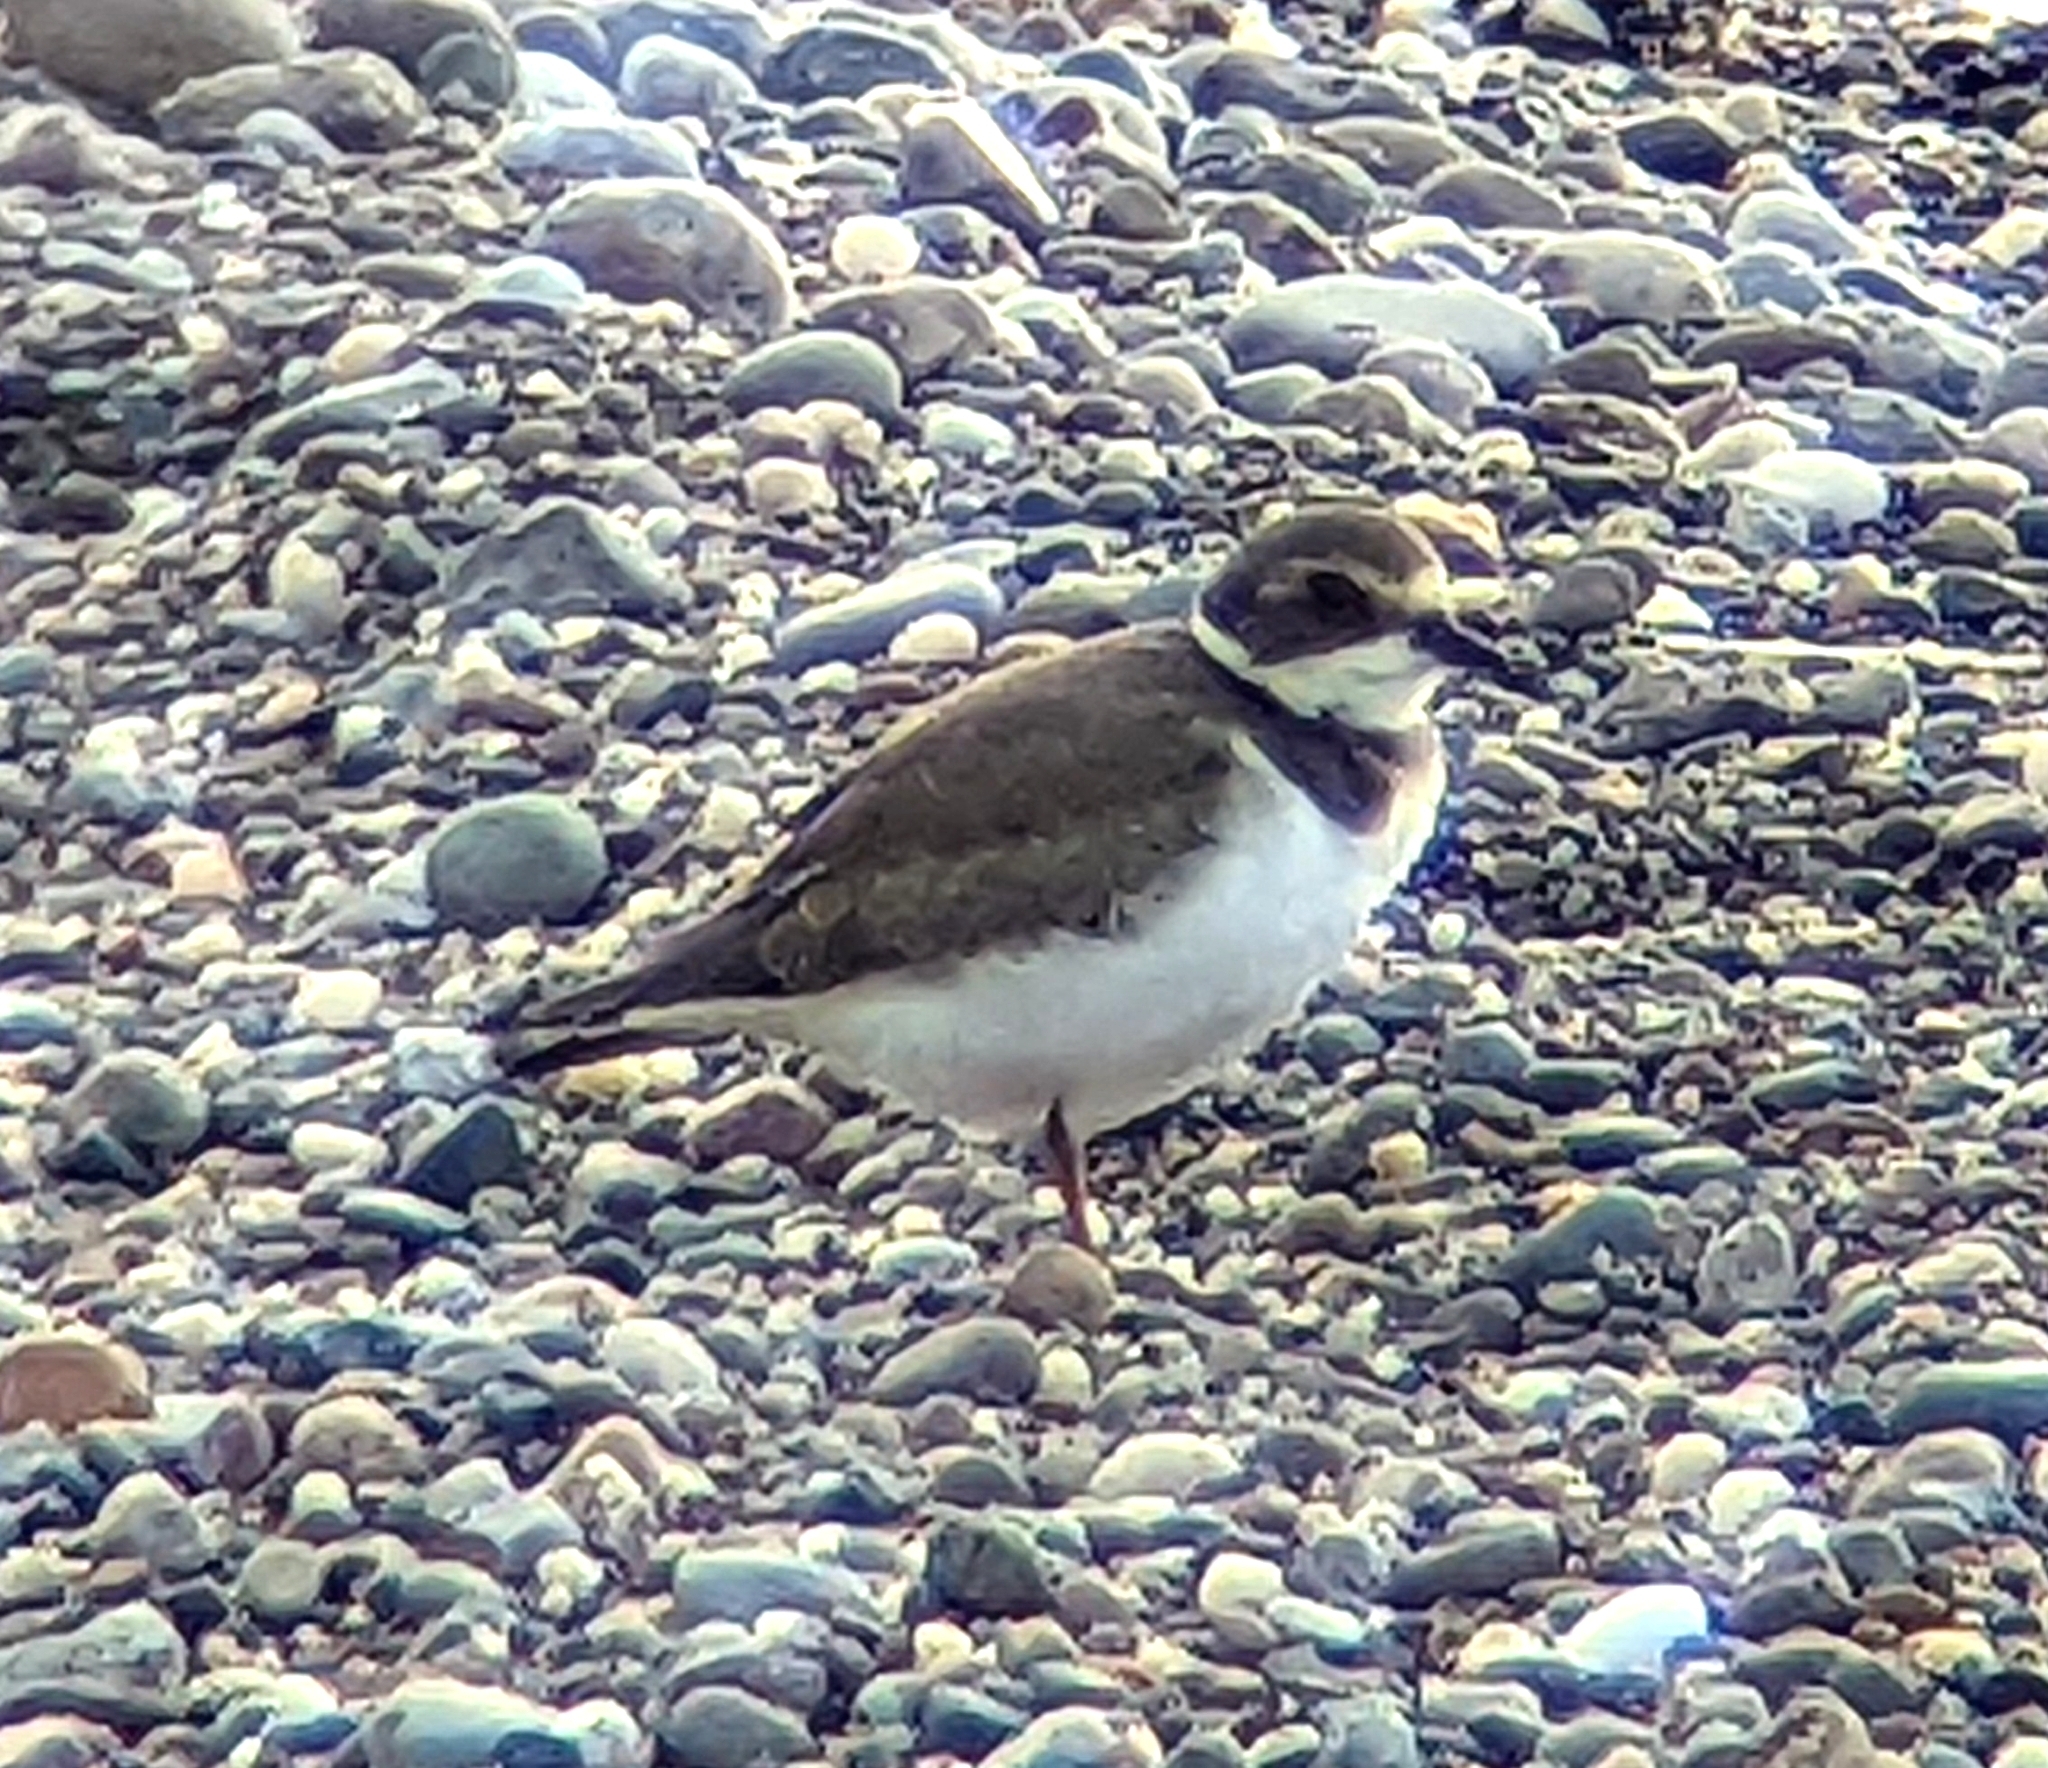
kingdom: Animalia
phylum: Chordata
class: Aves
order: Charadriiformes
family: Charadriidae
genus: Charadrius
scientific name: Charadrius semipalmatus
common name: Semipalmated plover
